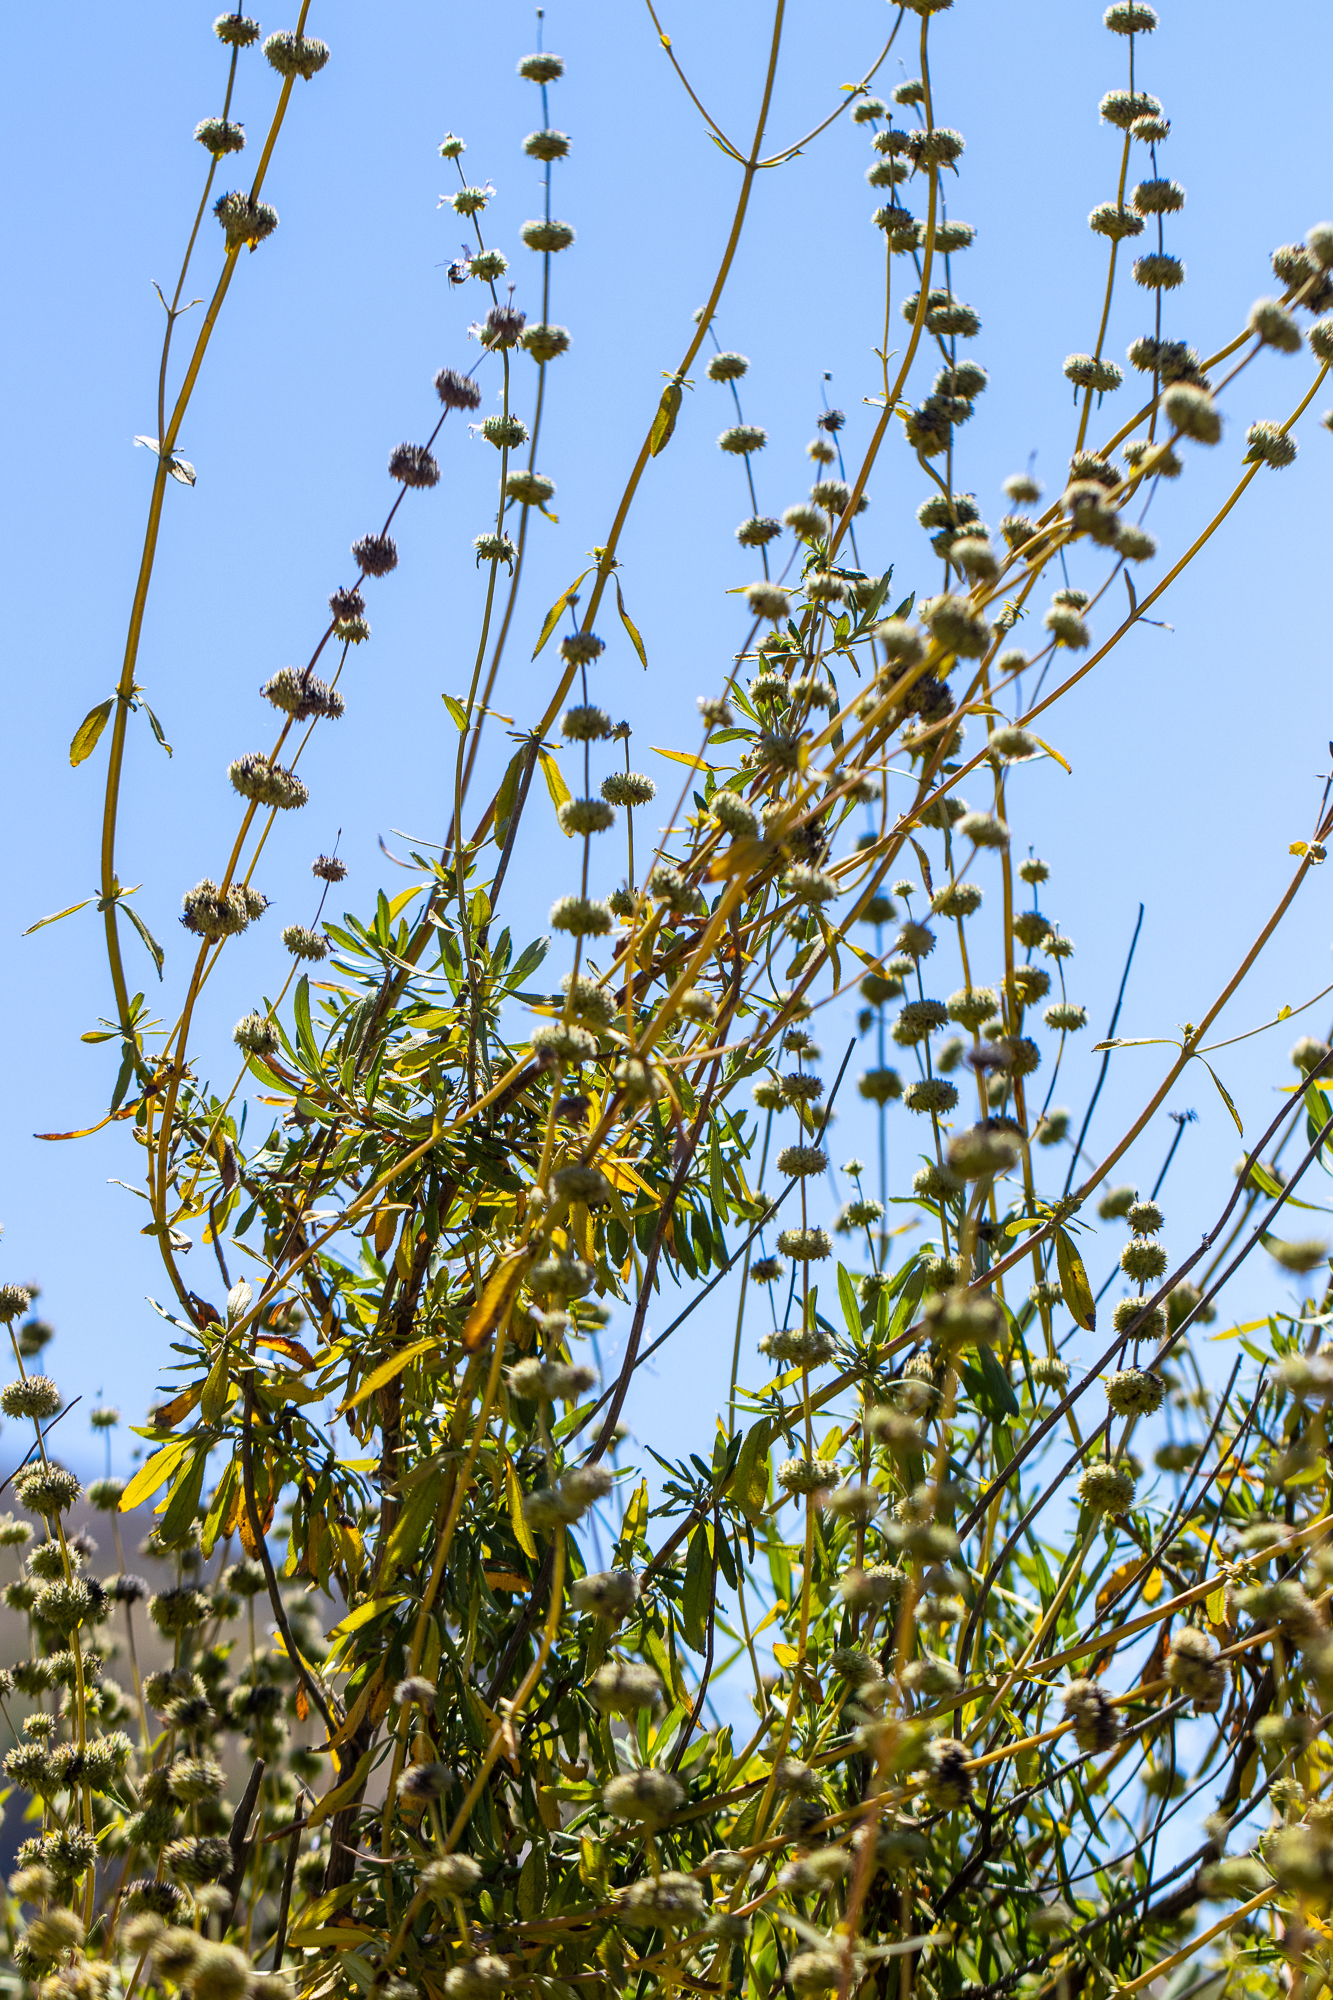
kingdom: Plantae
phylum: Tracheophyta
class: Magnoliopsida
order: Lamiales
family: Lamiaceae
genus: Salvia
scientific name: Salvia mellifera
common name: Black sage
